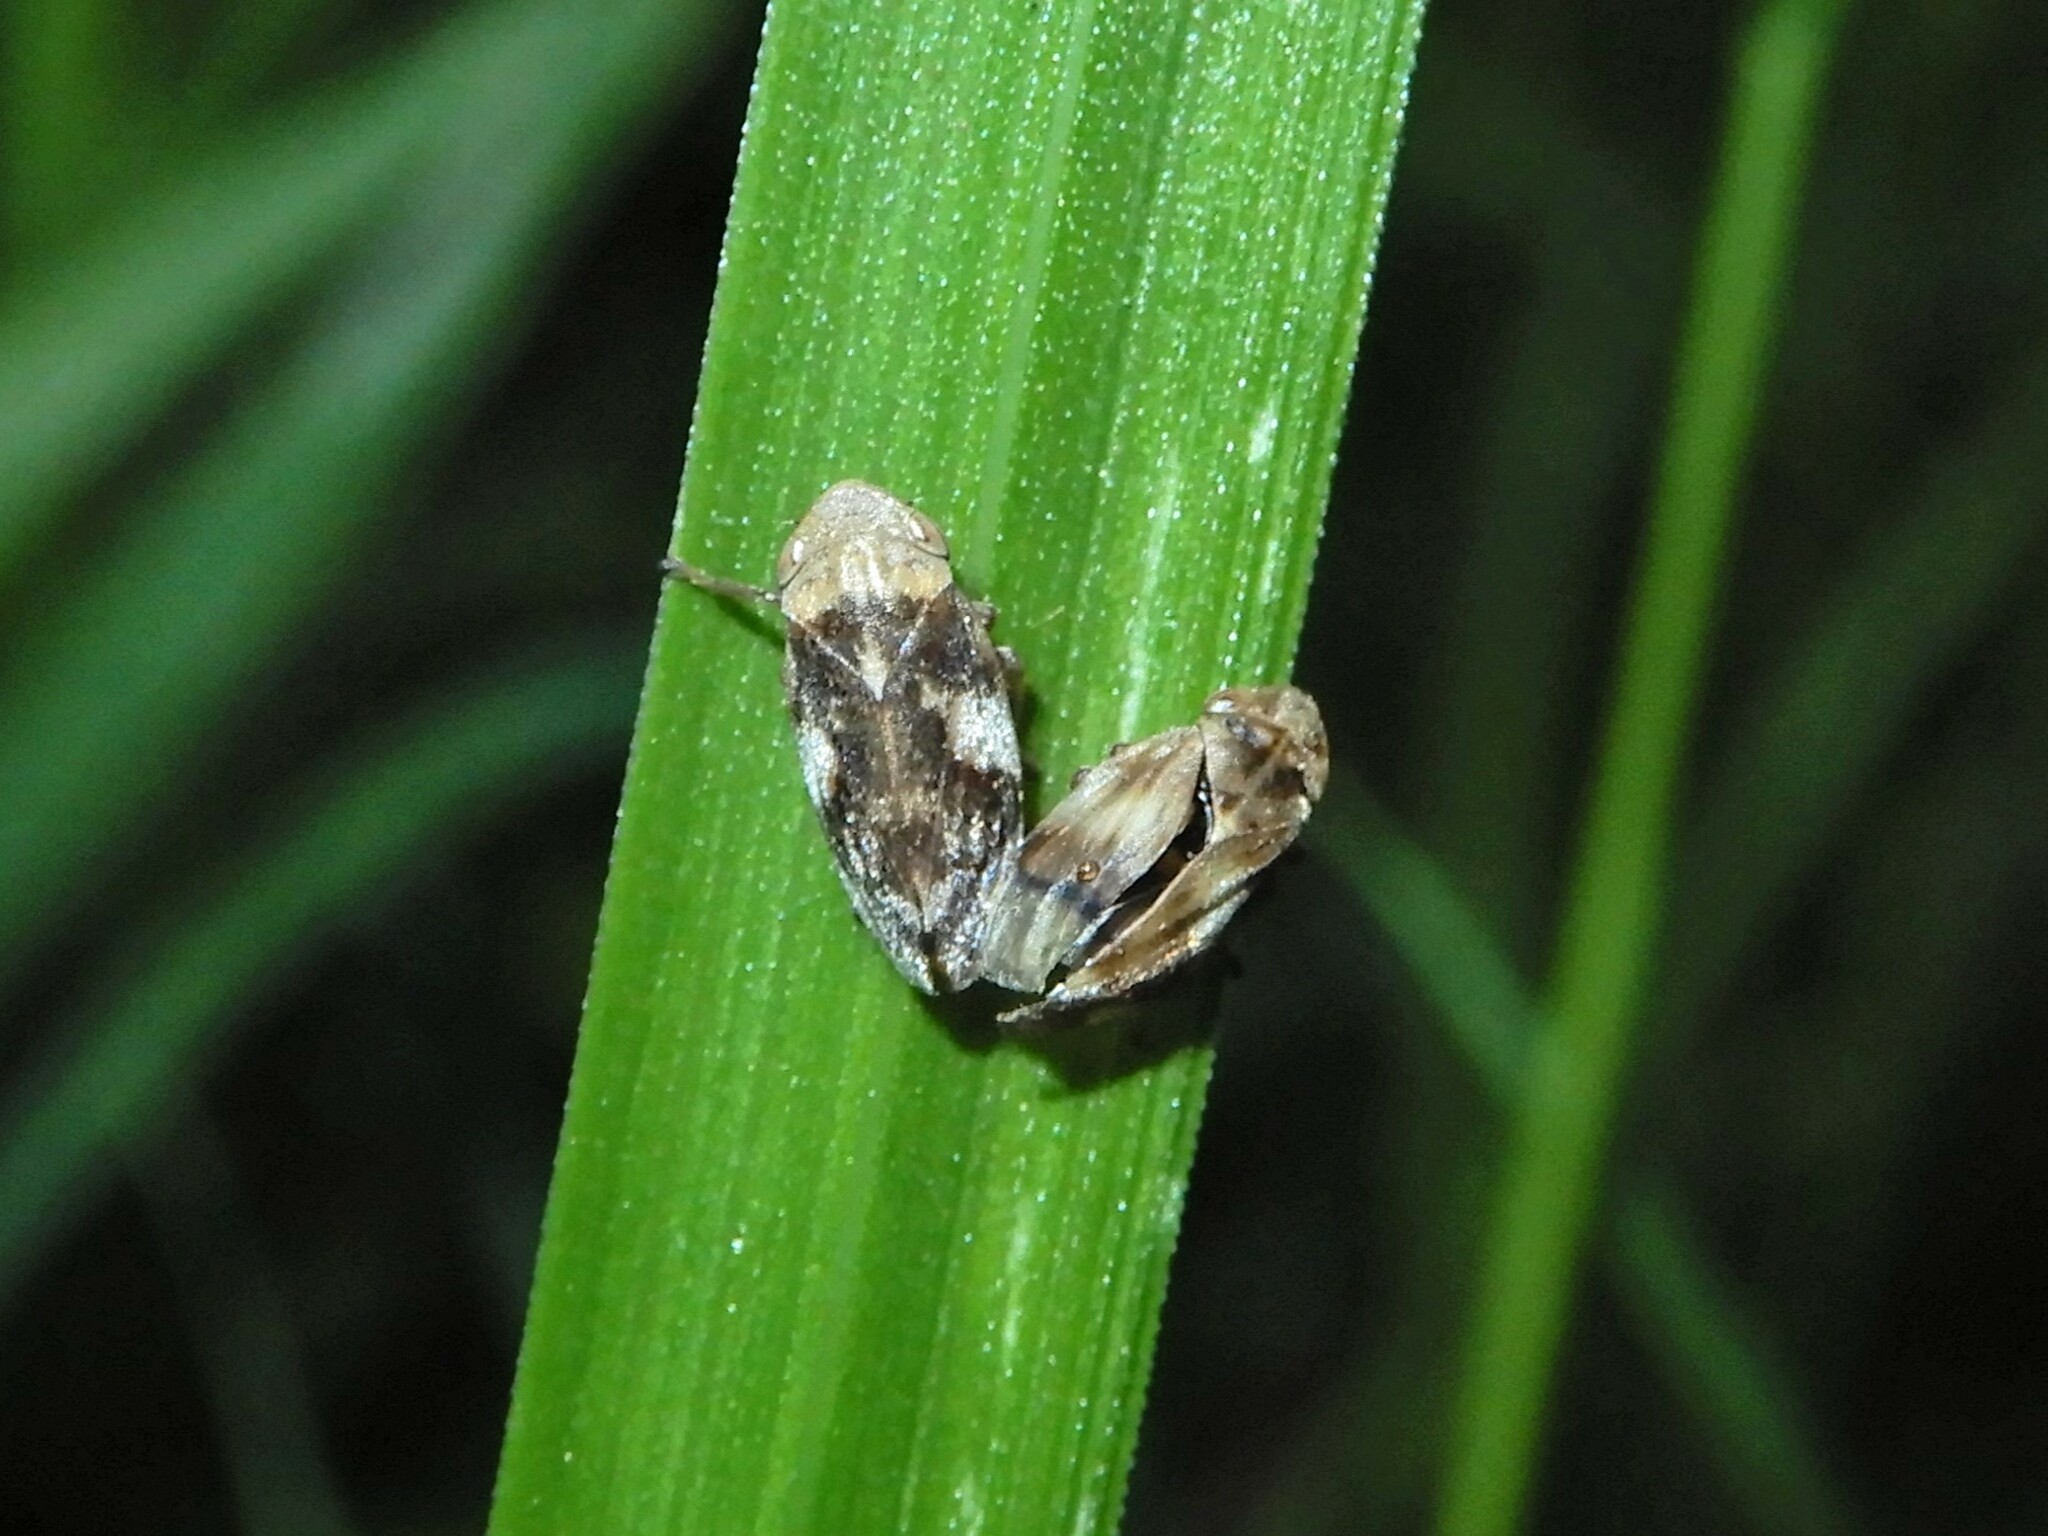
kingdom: Animalia
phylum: Arthropoda
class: Insecta
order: Hemiptera
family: Aphrophoridae
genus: Philaenus
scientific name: Philaenus spumarius
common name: Meadow spittlebug
